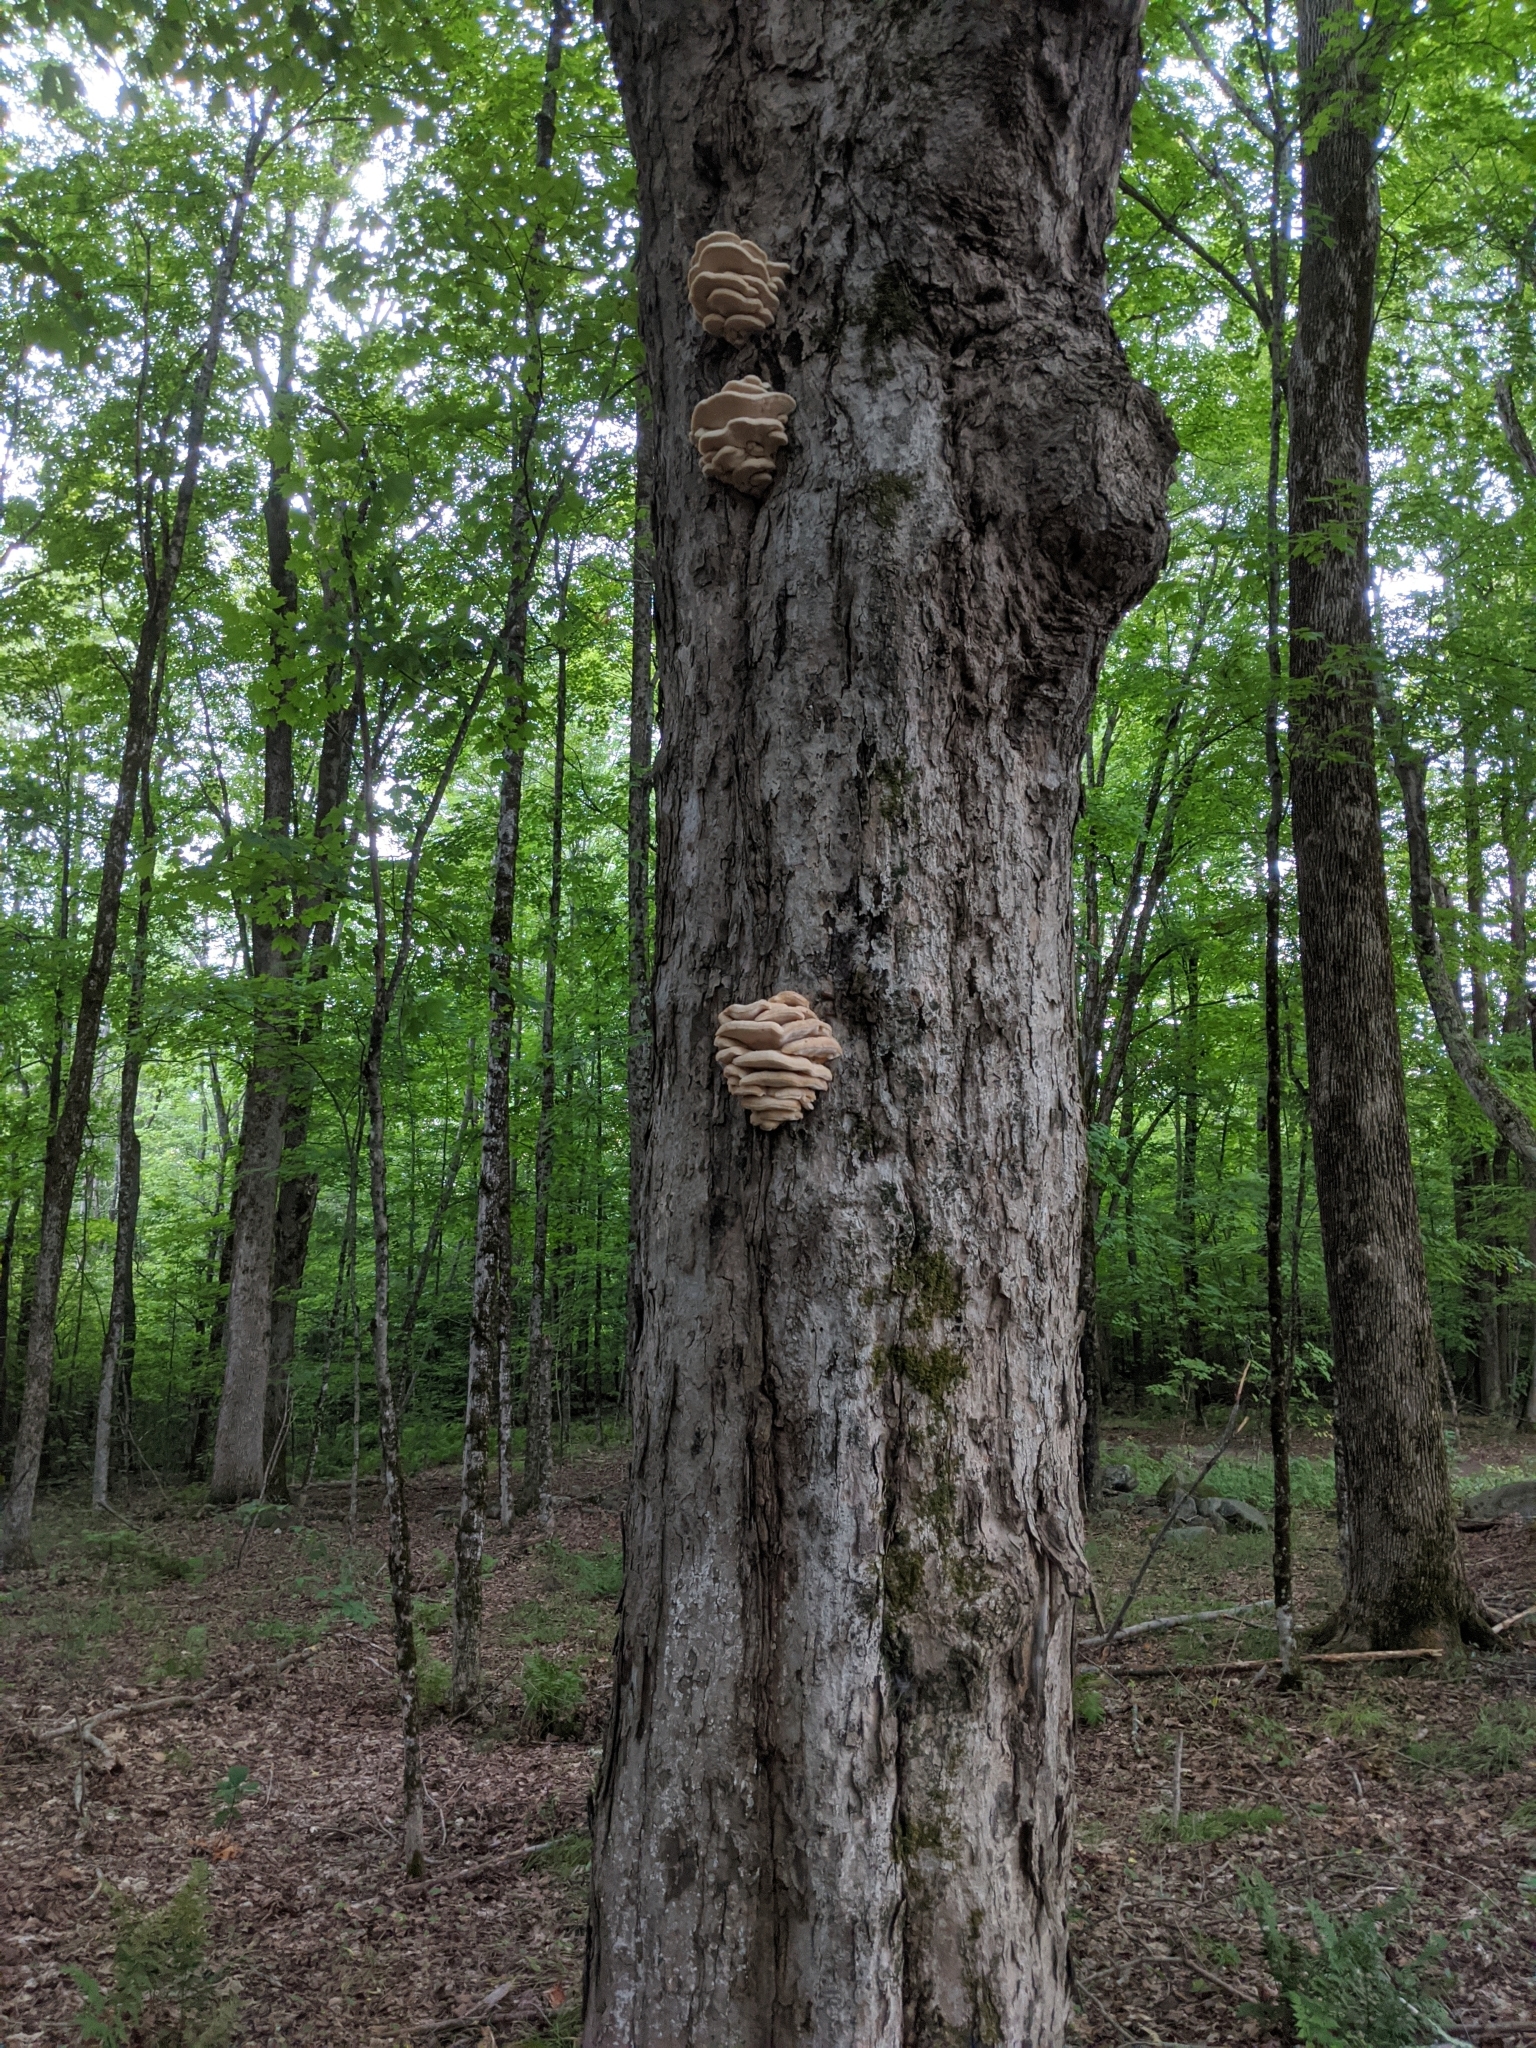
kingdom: Fungi
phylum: Basidiomycota
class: Agaricomycetes
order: Polyporales
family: Meruliaceae
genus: Climacodon
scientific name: Climacodon septentrionalis
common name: Northern tooth
